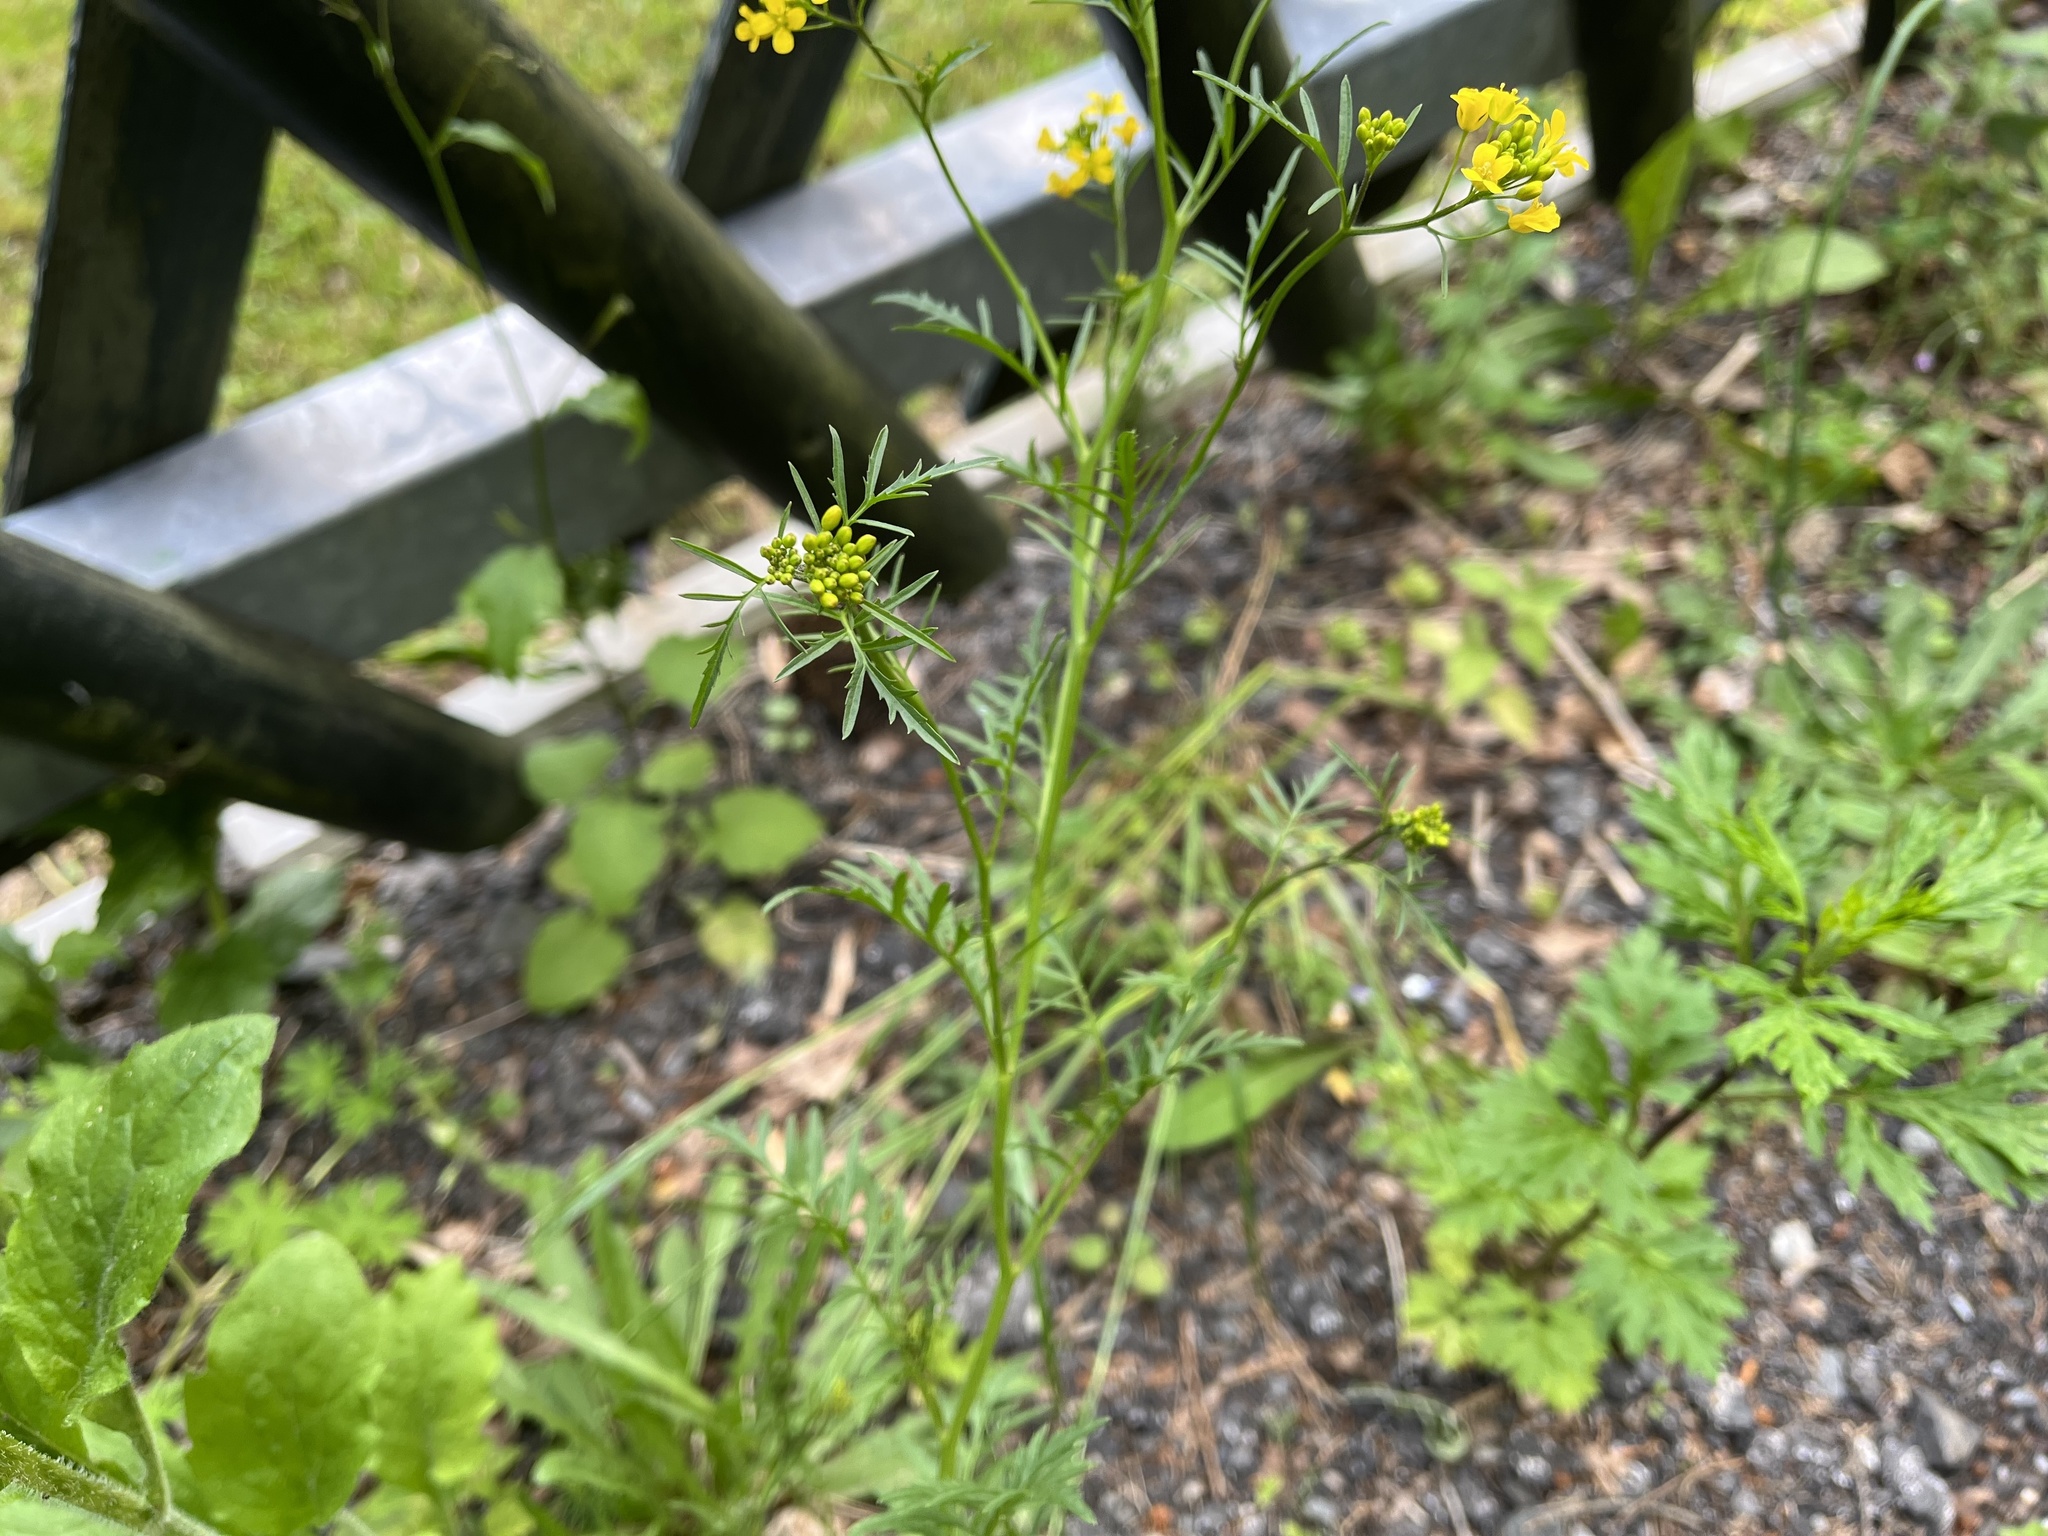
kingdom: Plantae
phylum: Tracheophyta
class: Magnoliopsida
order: Brassicales
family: Brassicaceae
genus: Rorippa
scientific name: Rorippa sylvestris
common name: Creeping yellowcress
